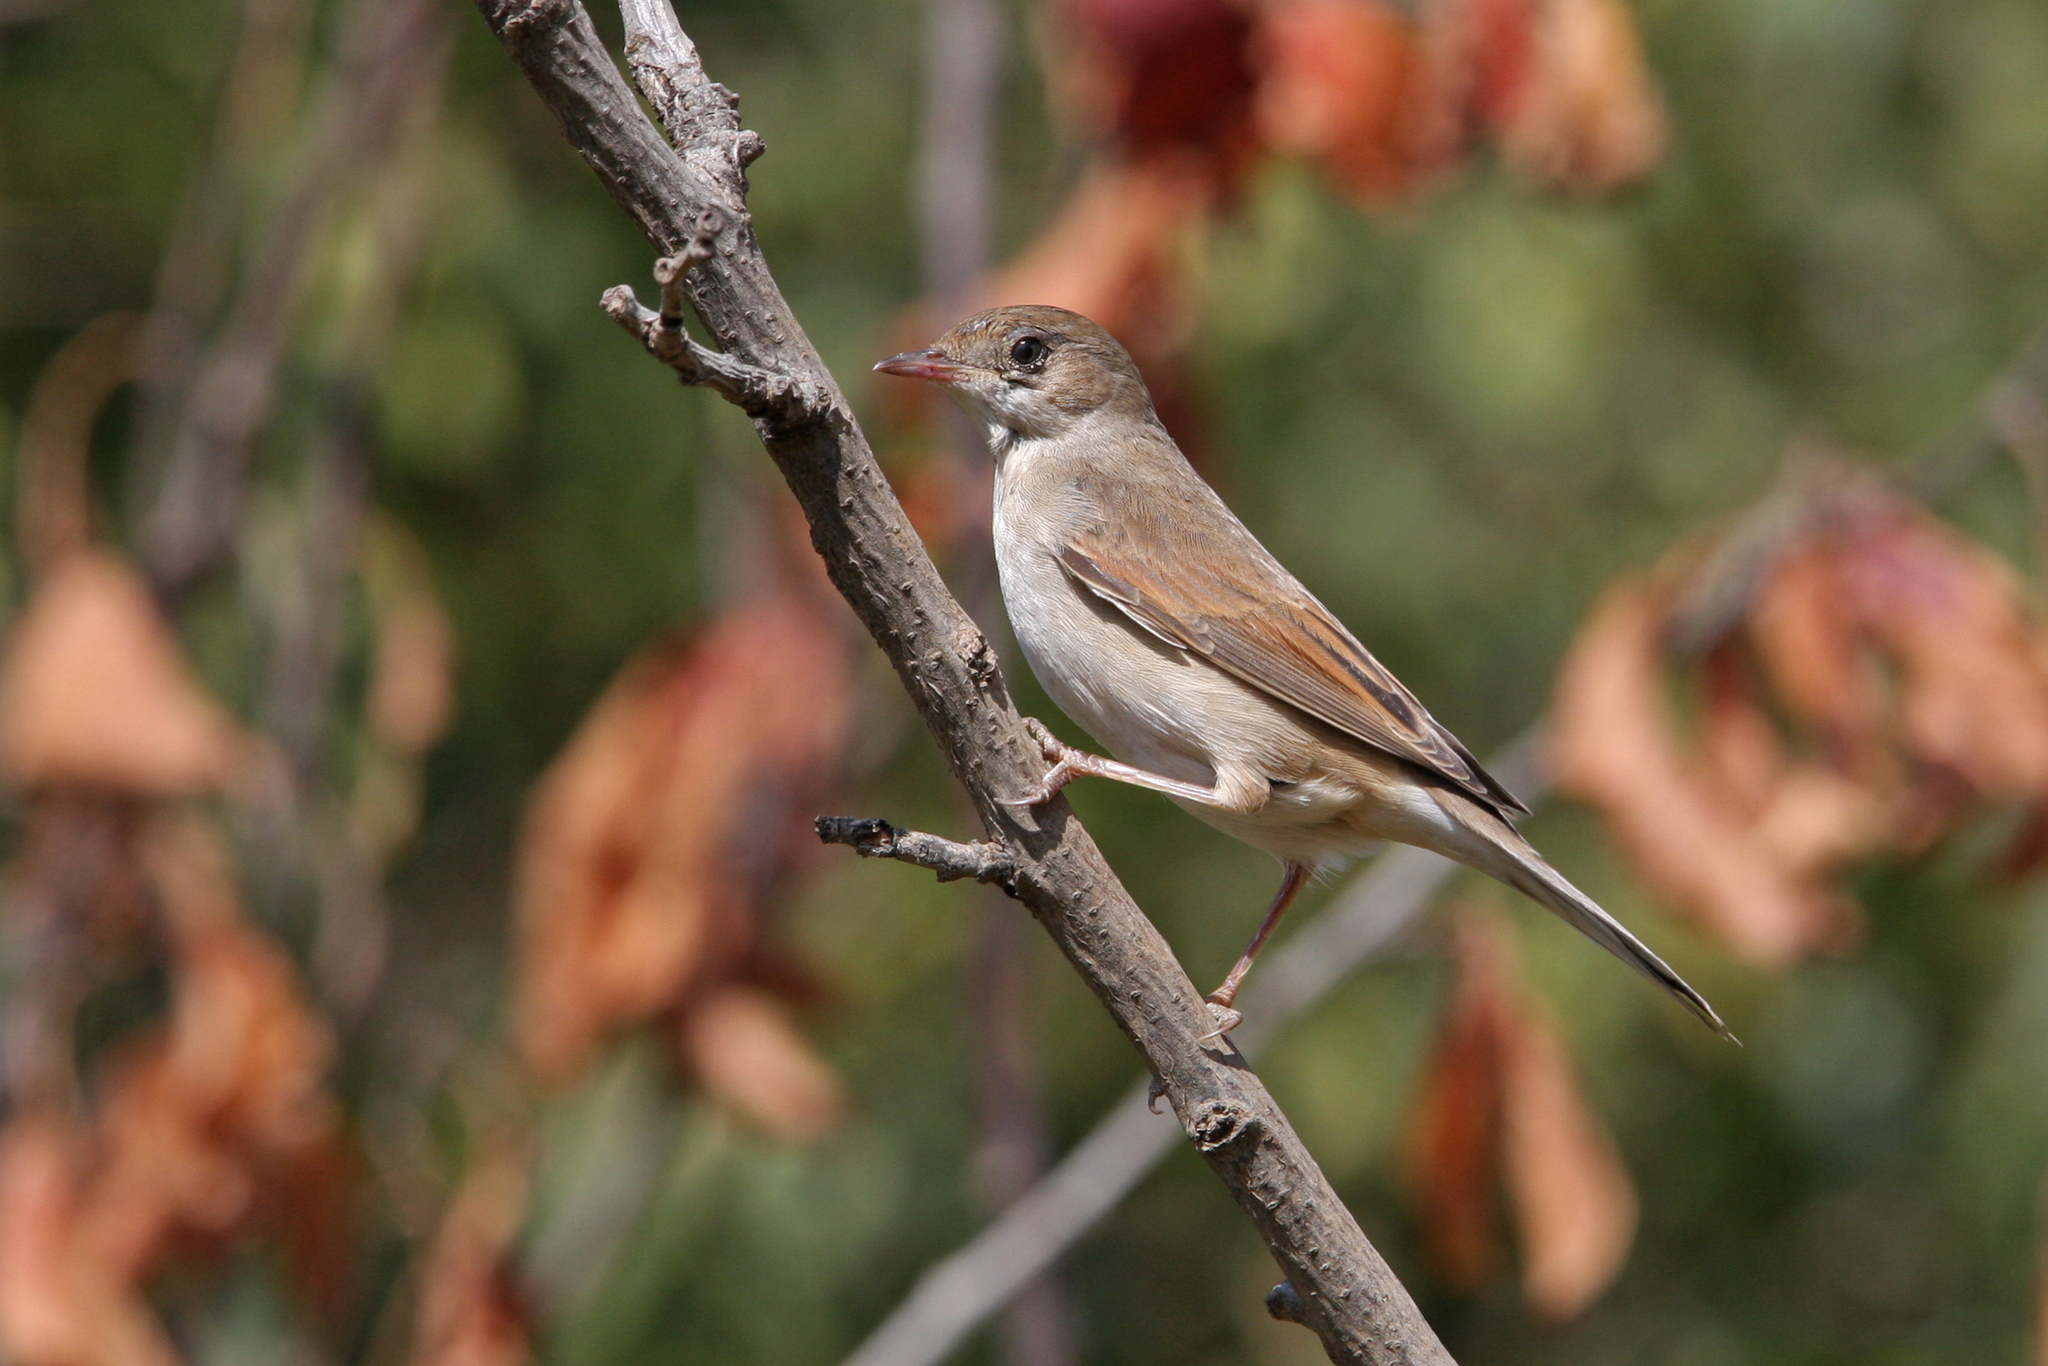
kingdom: Animalia
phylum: Chordata
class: Aves
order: Passeriformes
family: Sylviidae
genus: Sylvia
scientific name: Sylvia communis
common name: Common whitethroat
